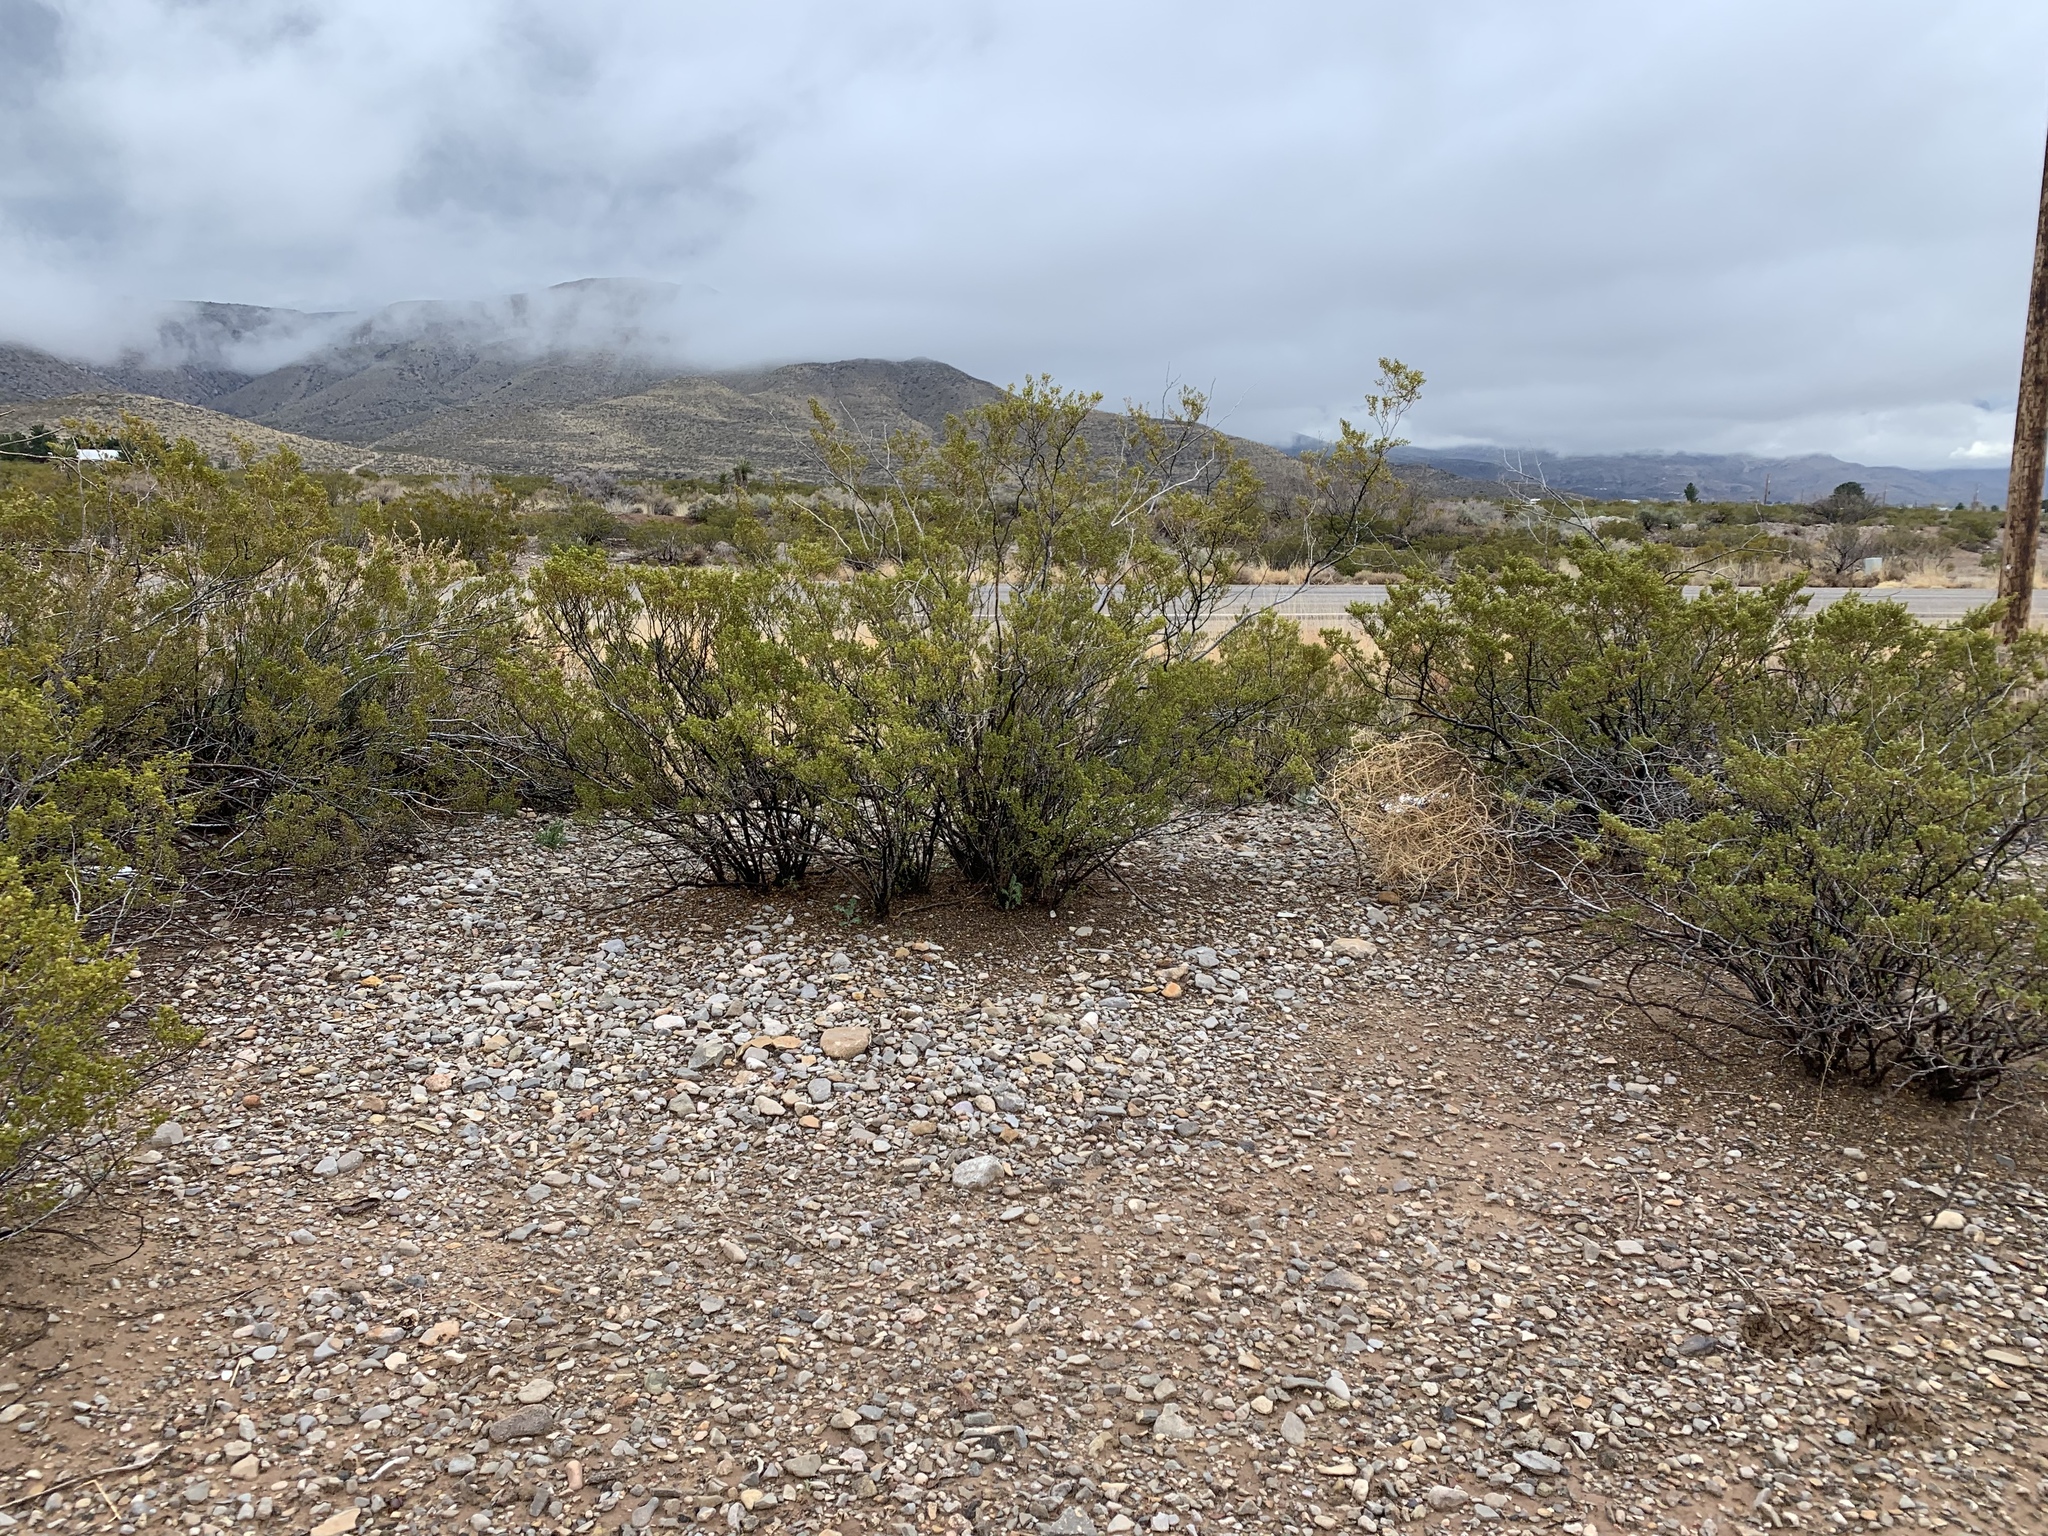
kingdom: Plantae
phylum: Tracheophyta
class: Magnoliopsida
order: Zygophyllales
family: Zygophyllaceae
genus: Larrea
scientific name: Larrea tridentata
